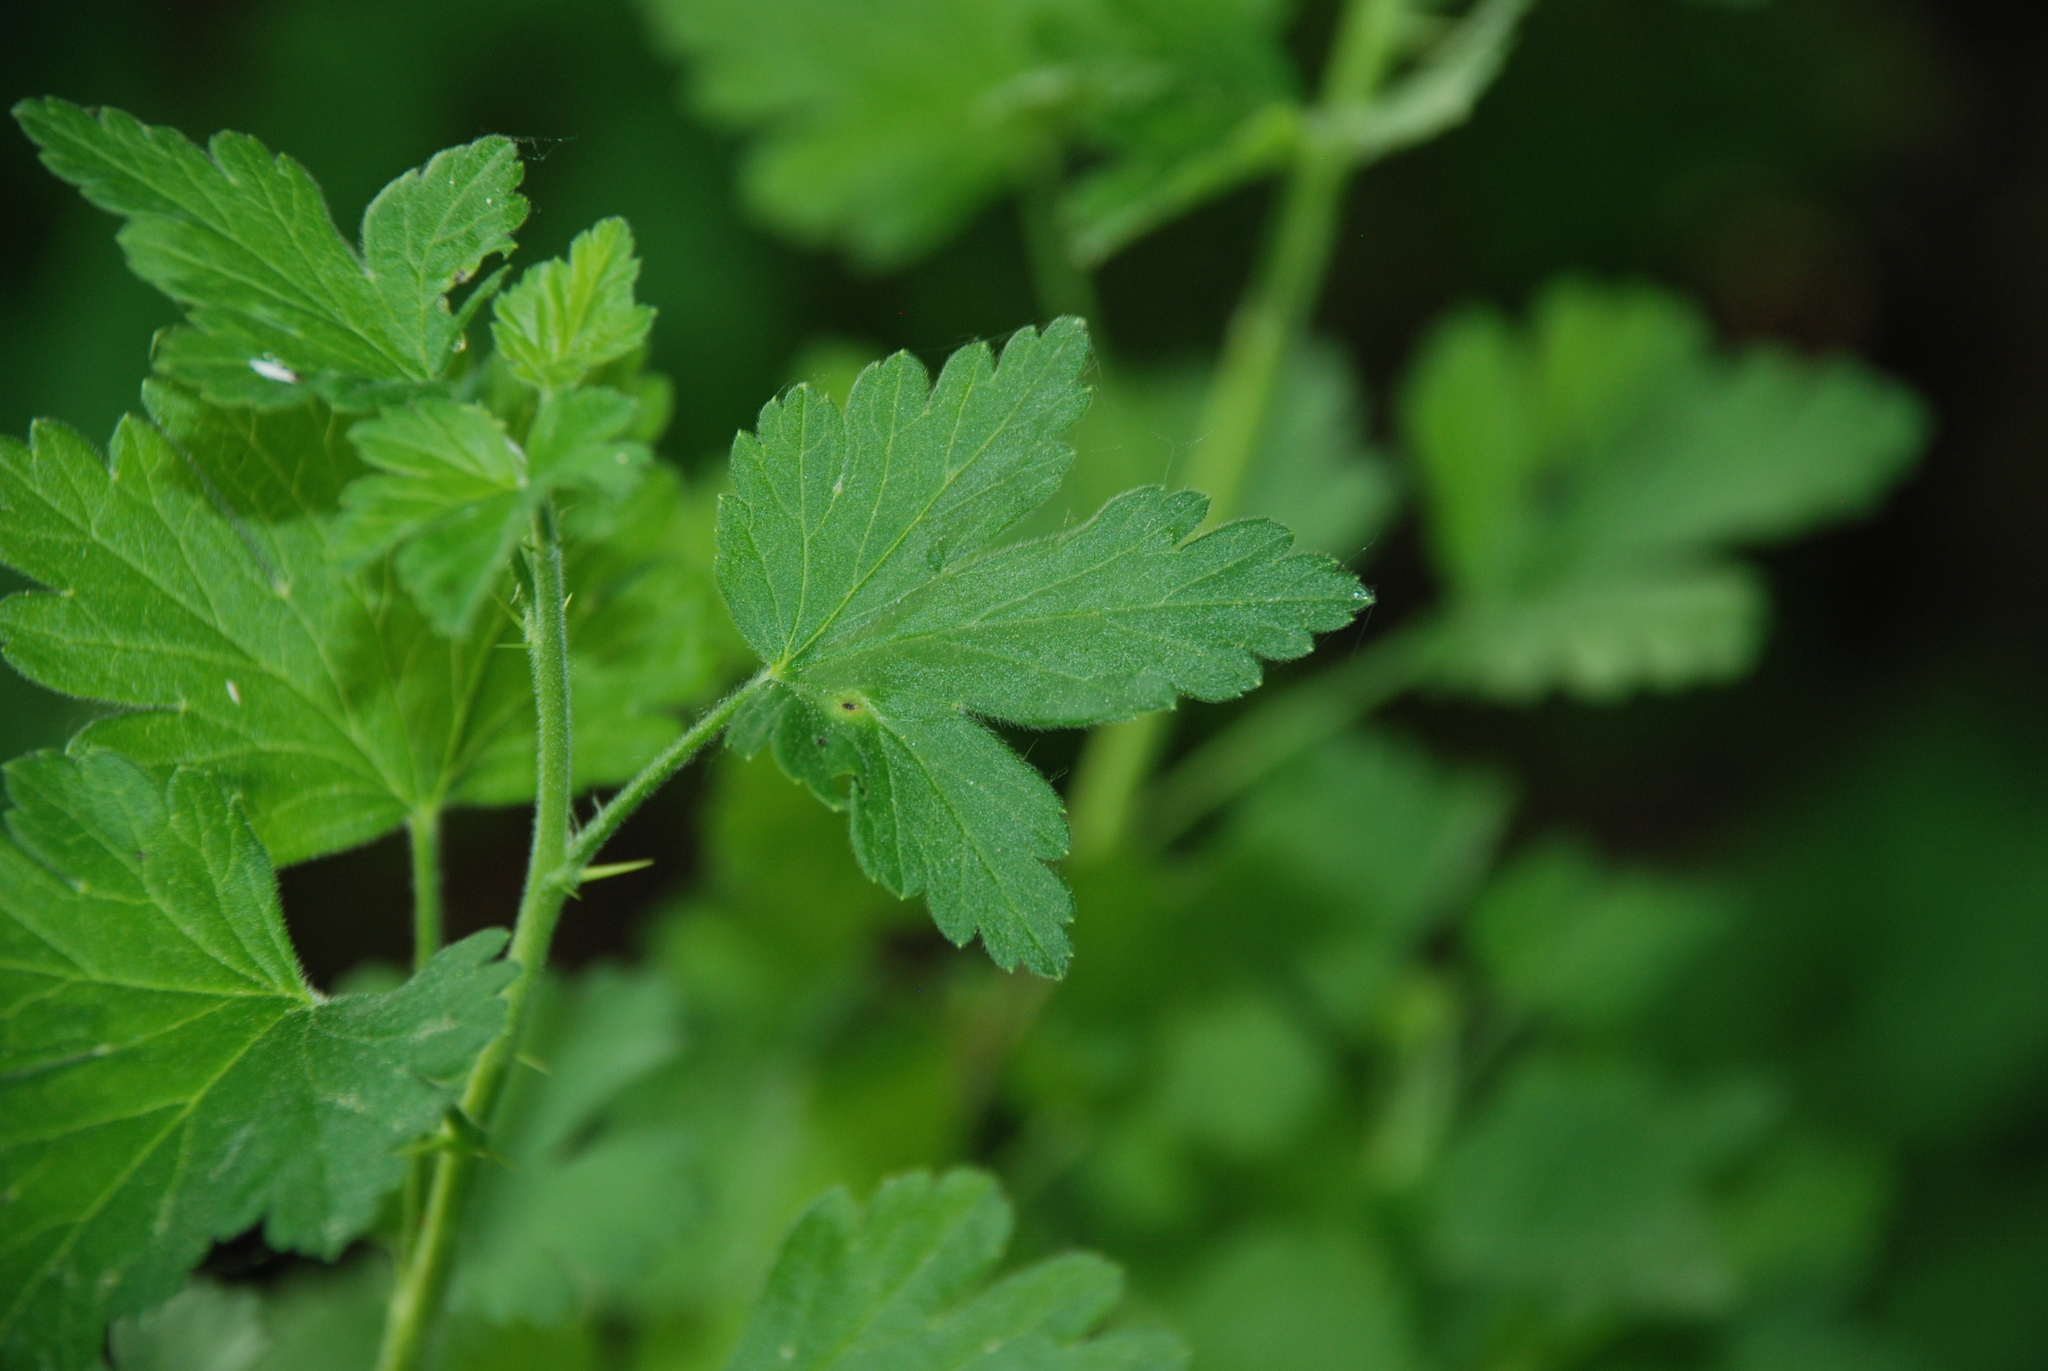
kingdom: Plantae
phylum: Tracheophyta
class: Magnoliopsida
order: Saxifragales
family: Grossulariaceae
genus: Ribes
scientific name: Ribes uva-crispa
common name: Gooseberry
